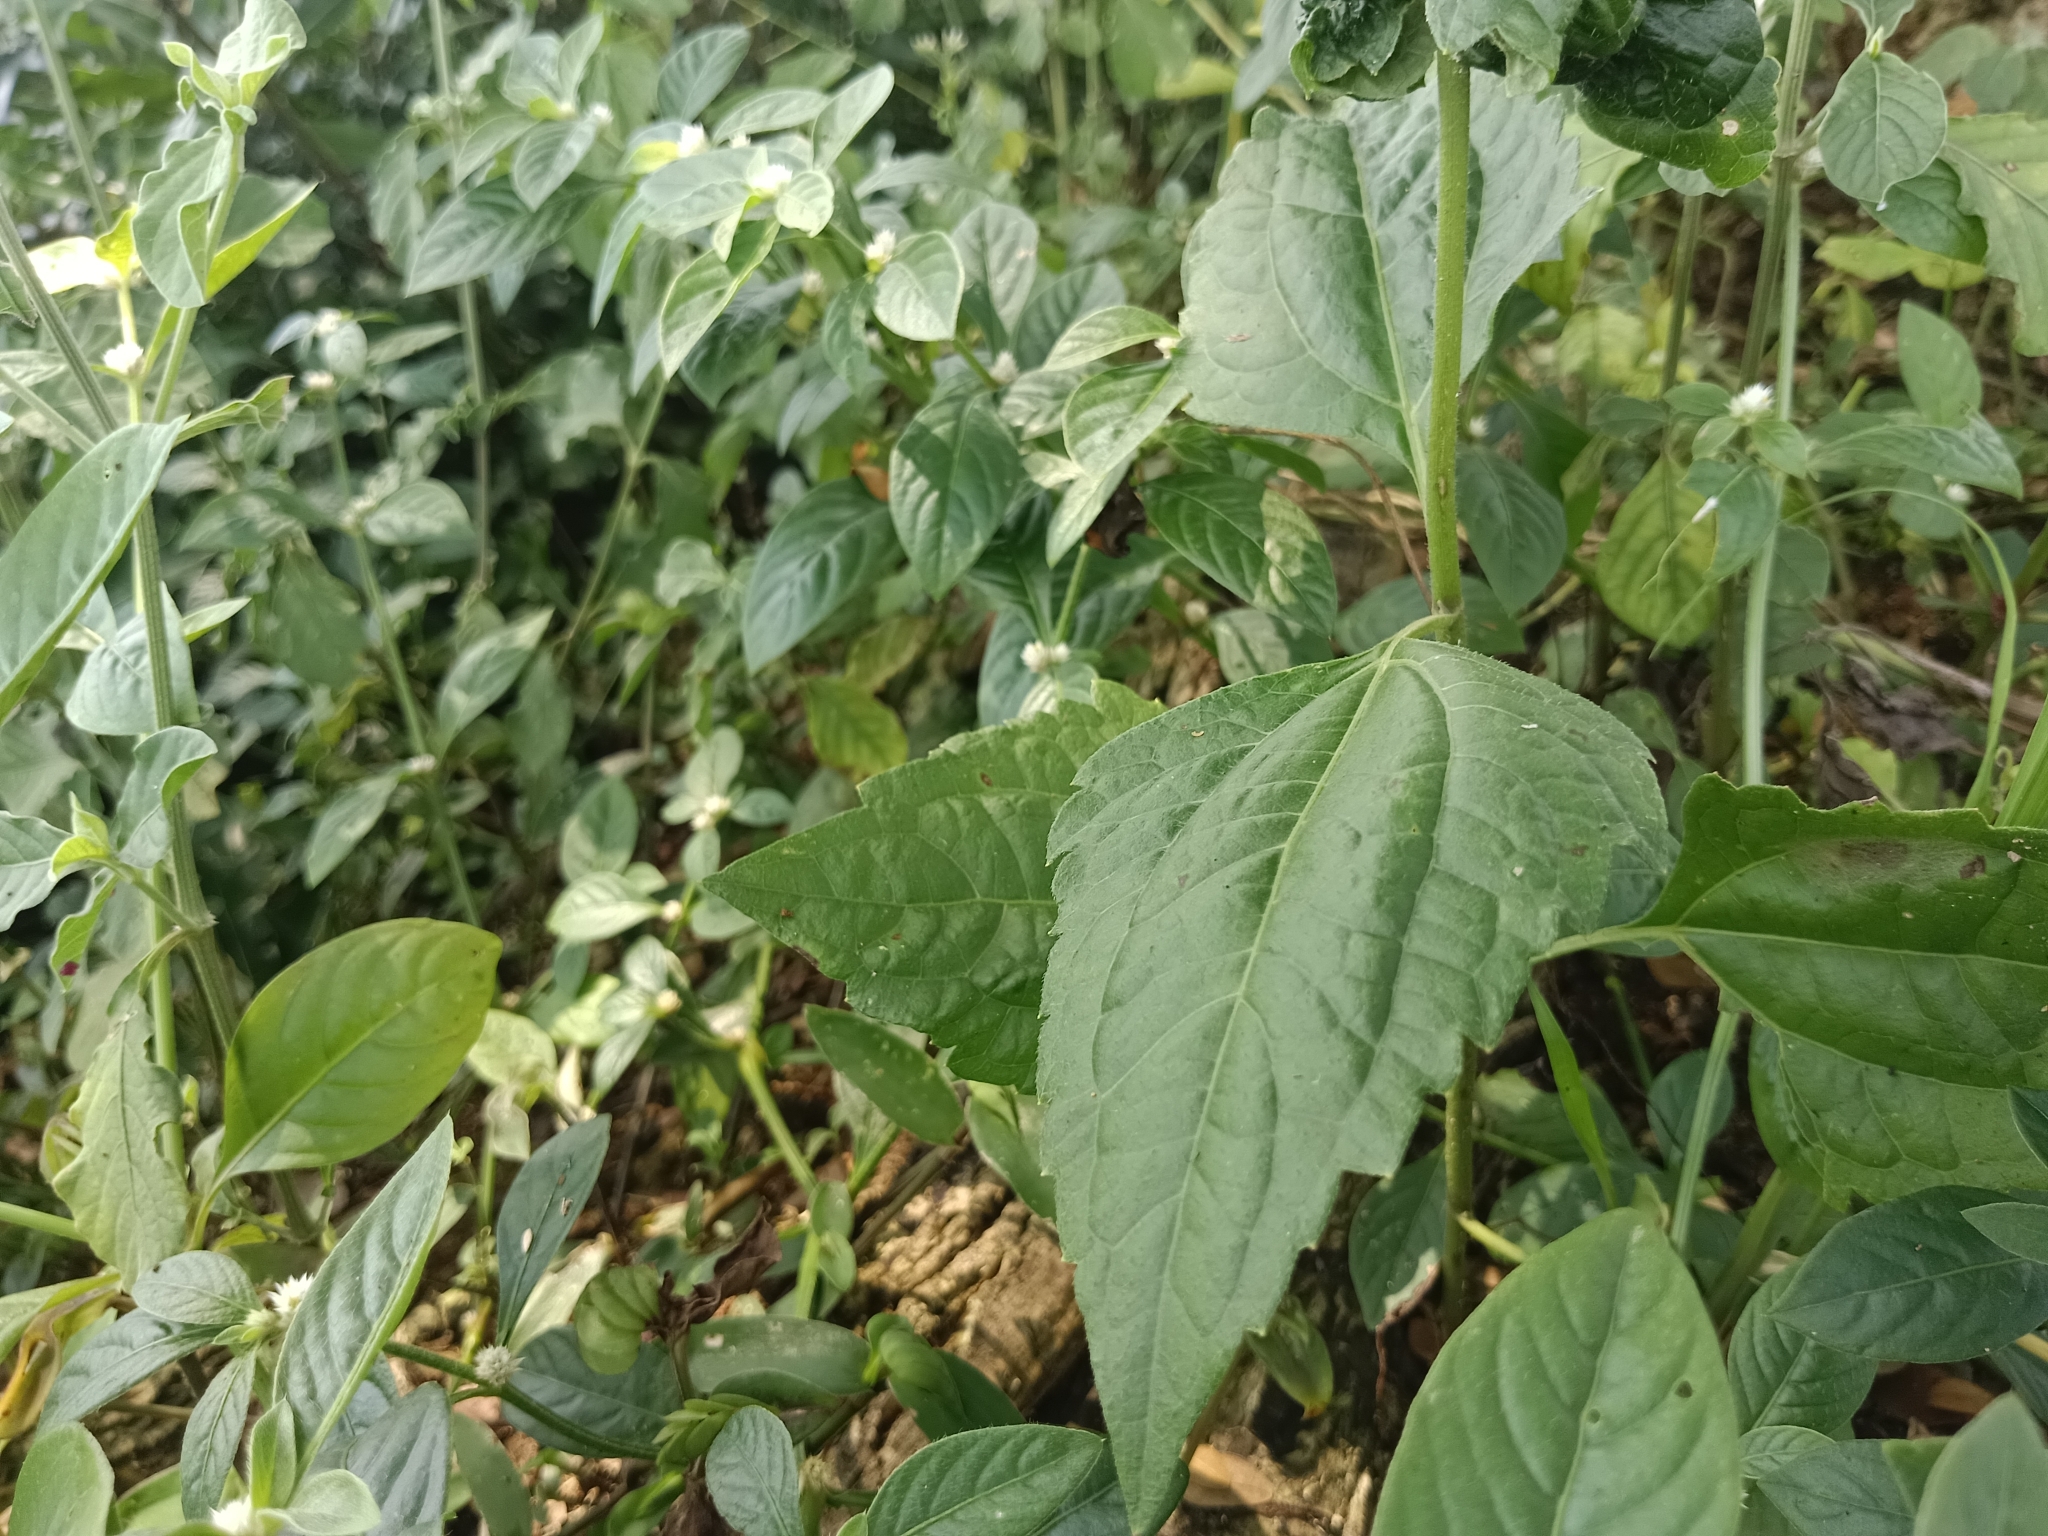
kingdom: Plantae
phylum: Tracheophyta
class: Magnoliopsida
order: Asterales
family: Asteraceae
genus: Chromolaena
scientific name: Chromolaena odorata
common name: Siamweed
